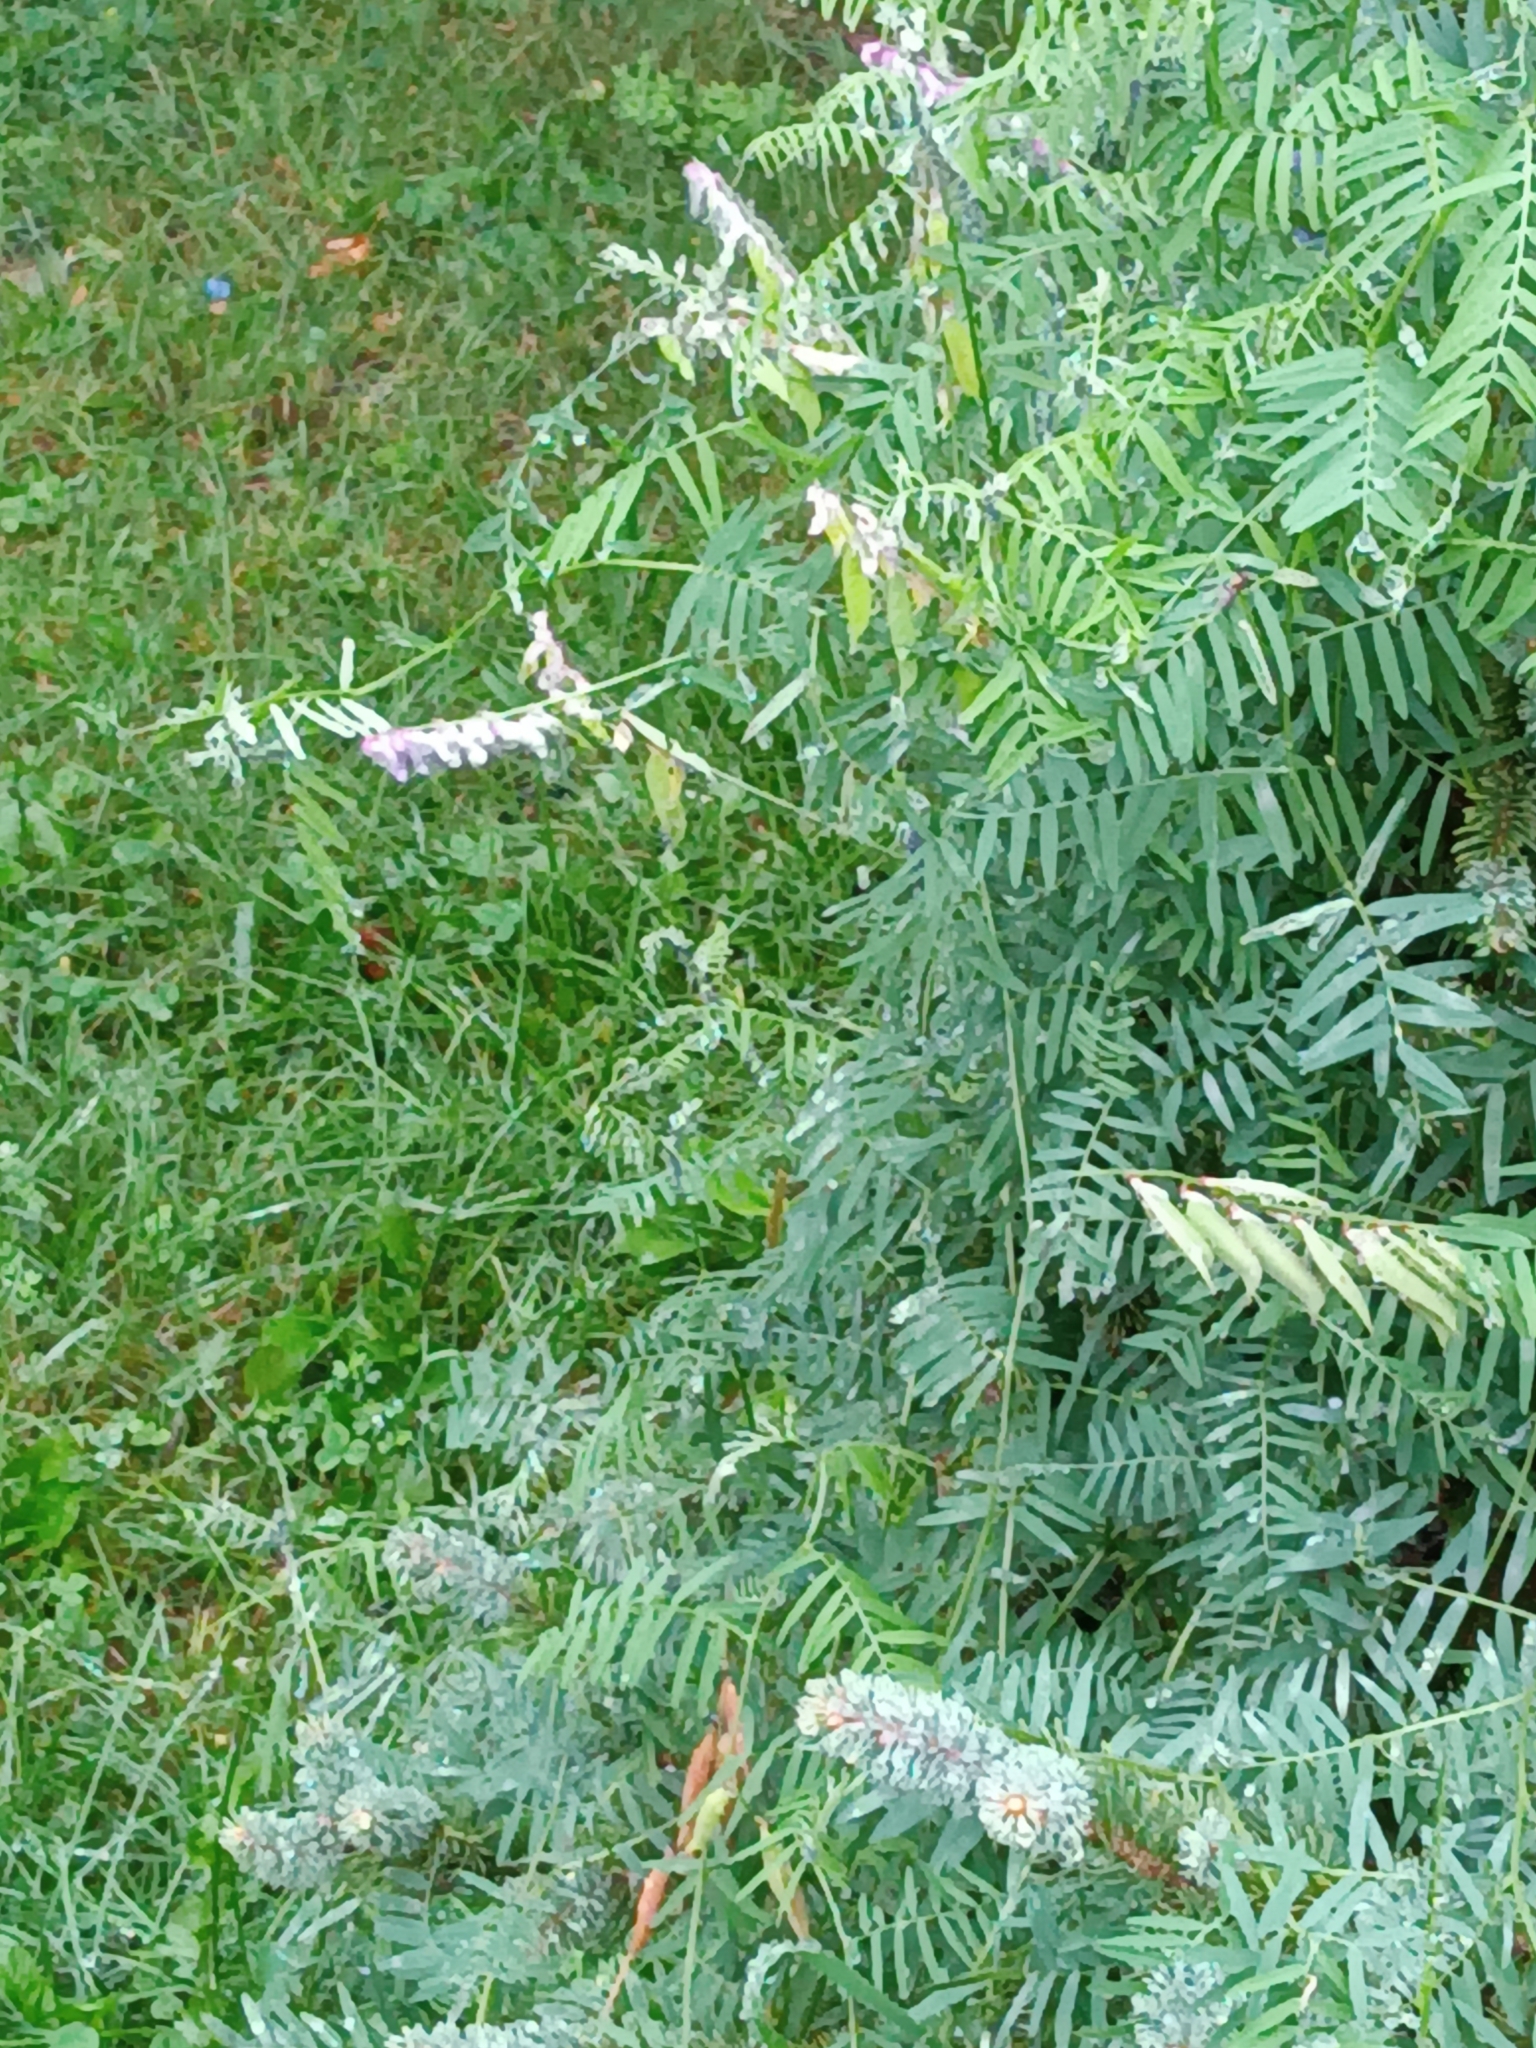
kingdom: Plantae
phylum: Tracheophyta
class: Magnoliopsida
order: Fabales
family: Fabaceae
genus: Vicia
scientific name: Vicia cracca
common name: Bird vetch
